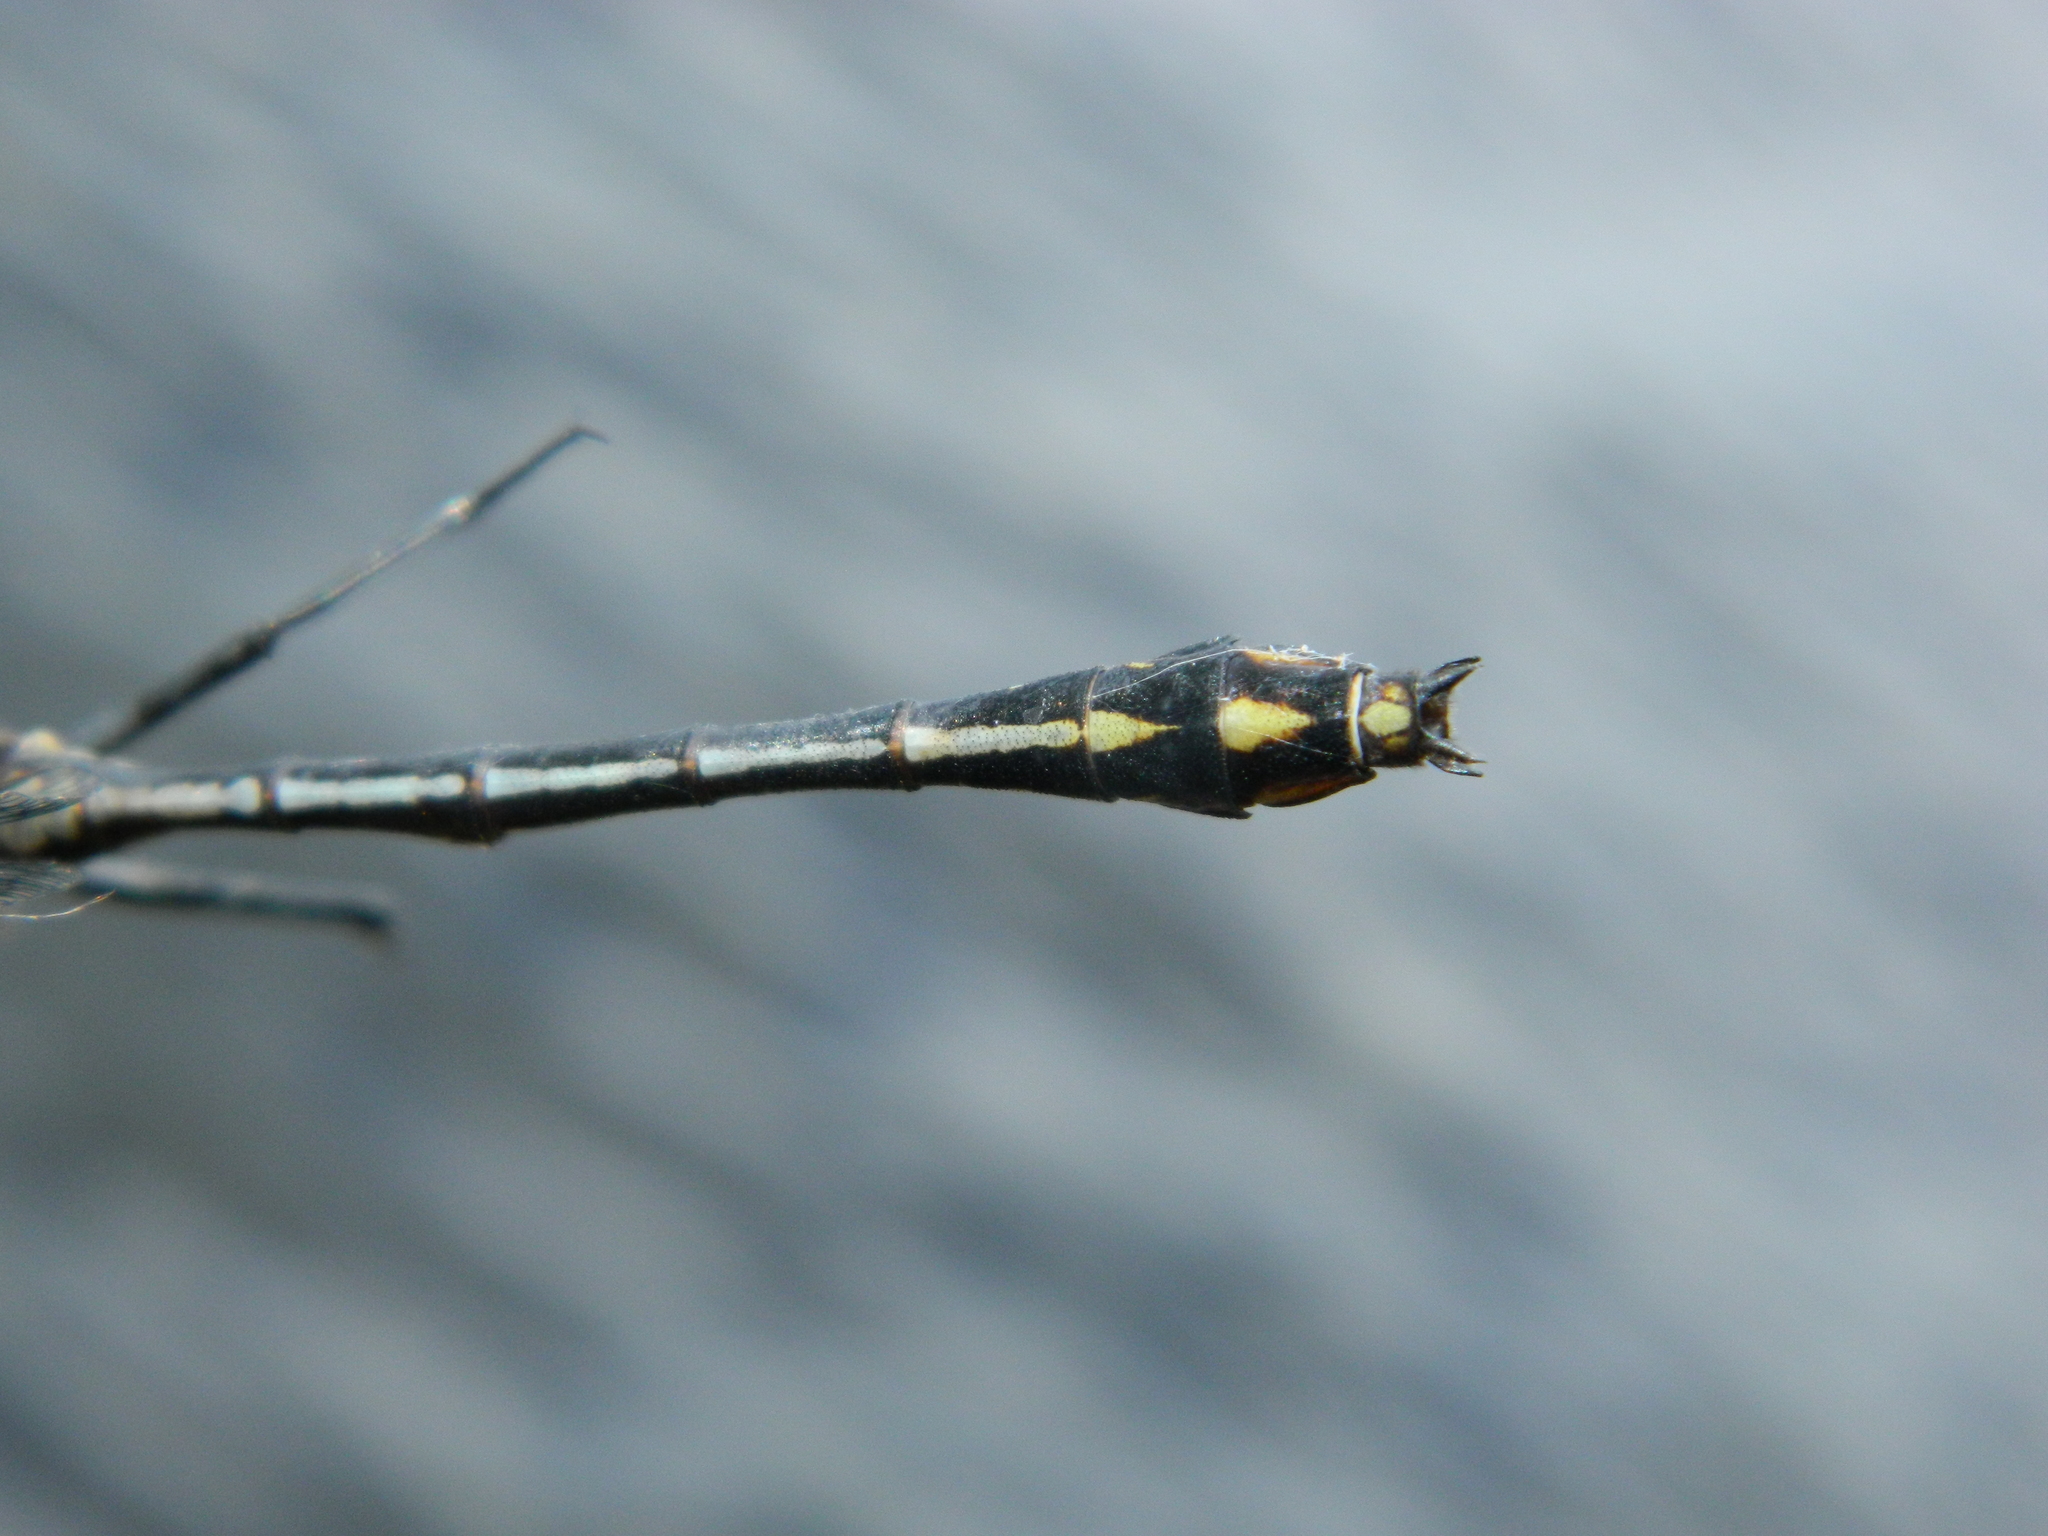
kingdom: Animalia
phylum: Arthropoda
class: Insecta
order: Odonata
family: Gomphidae
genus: Dromogomphus
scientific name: Dromogomphus spinosus
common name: Black-shouldered spinyleg
